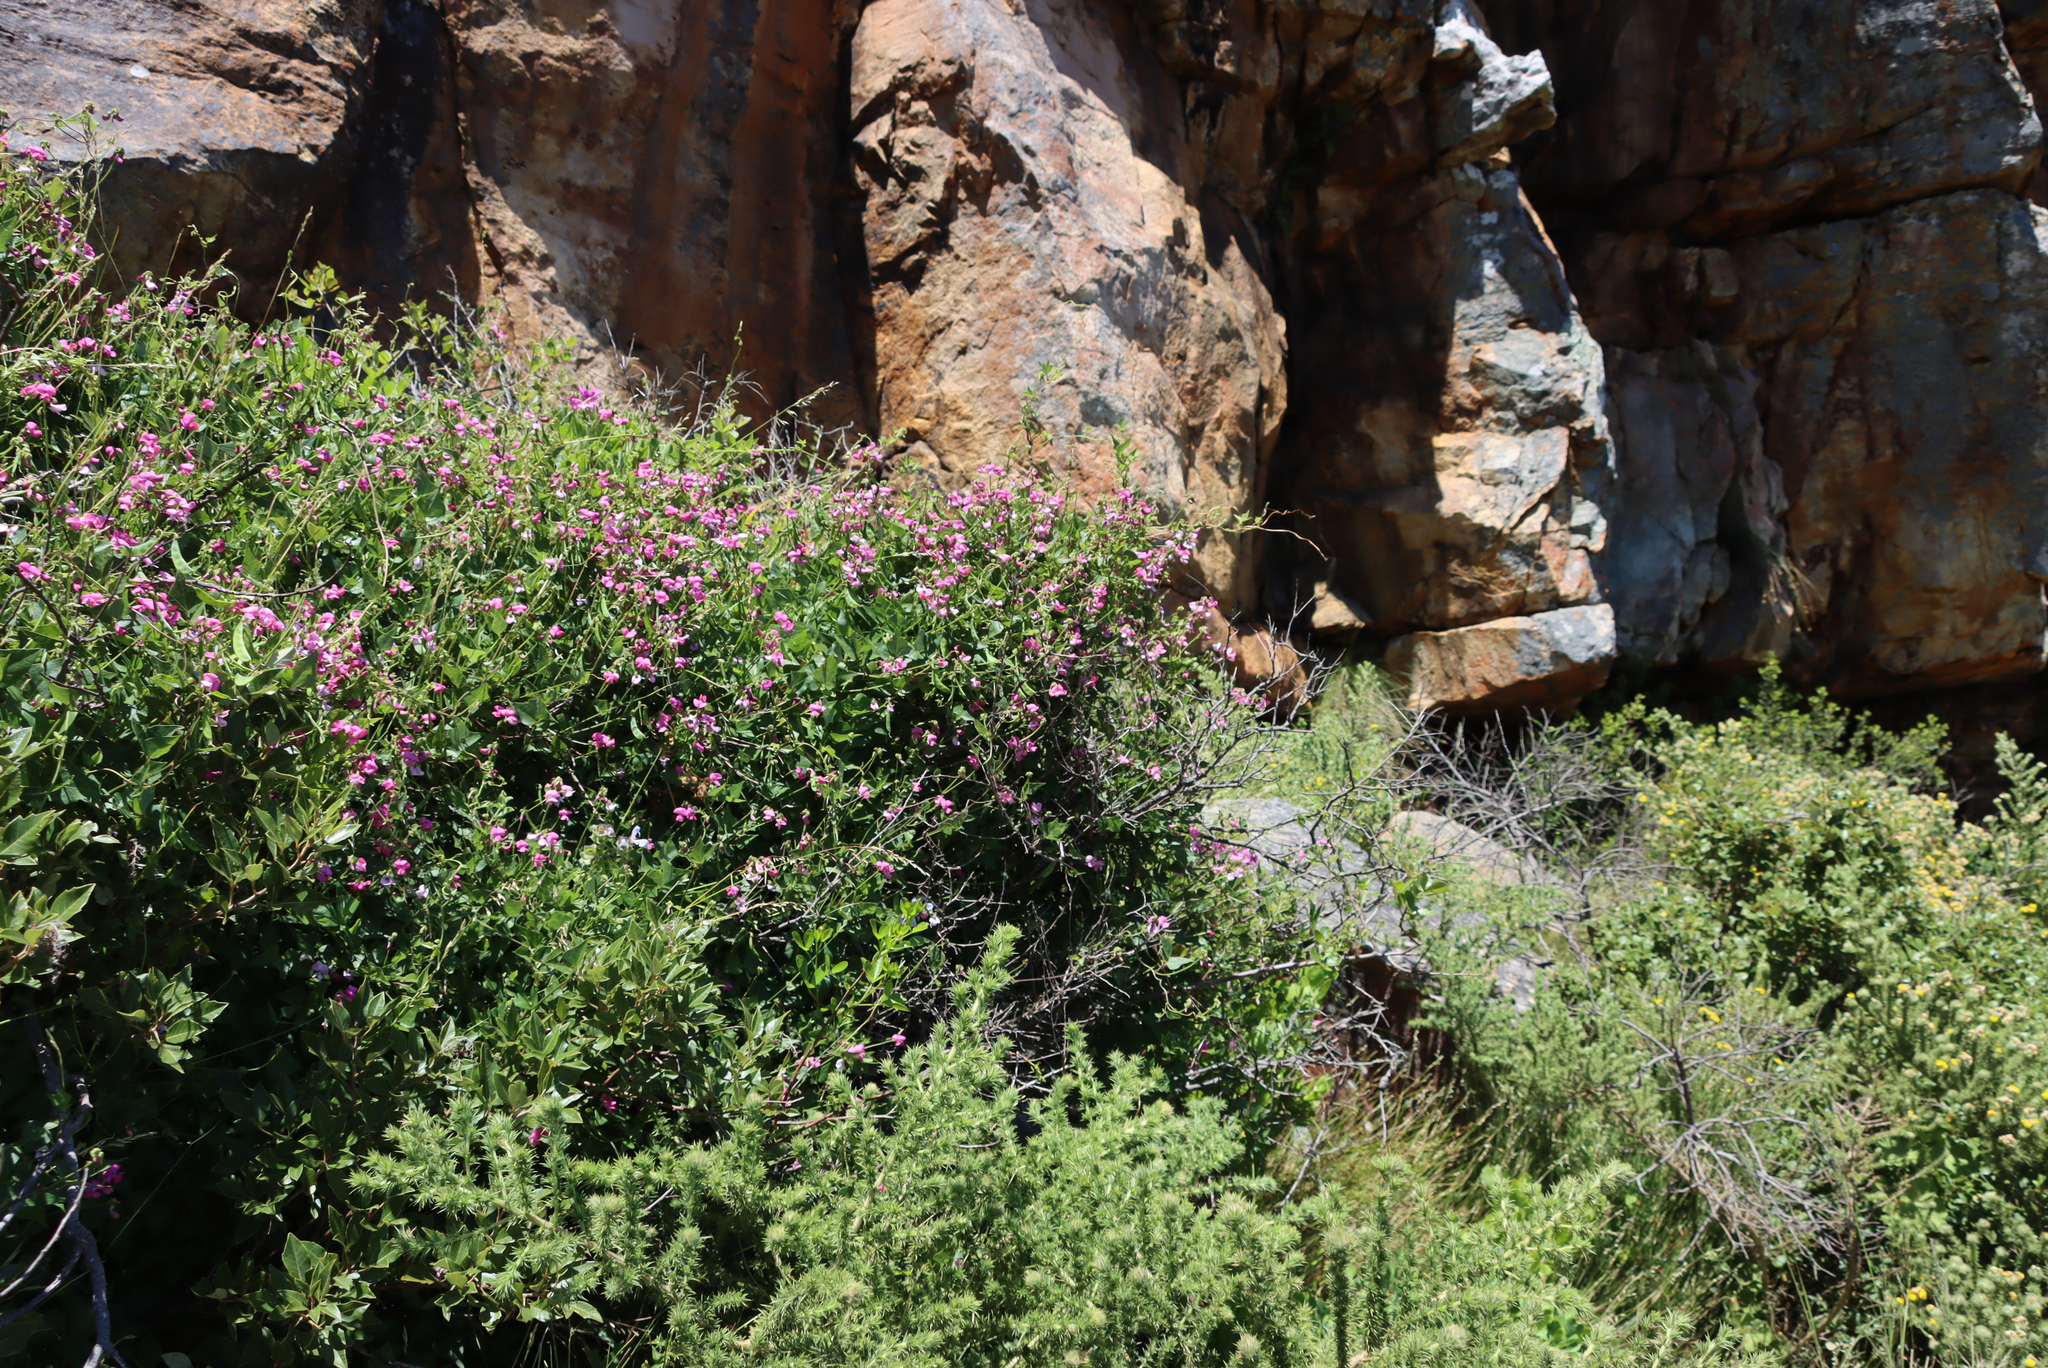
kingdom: Plantae
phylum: Tracheophyta
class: Magnoliopsida
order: Fabales
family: Fabaceae
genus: Dipogon
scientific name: Dipogon lignosus
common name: Okie bean
